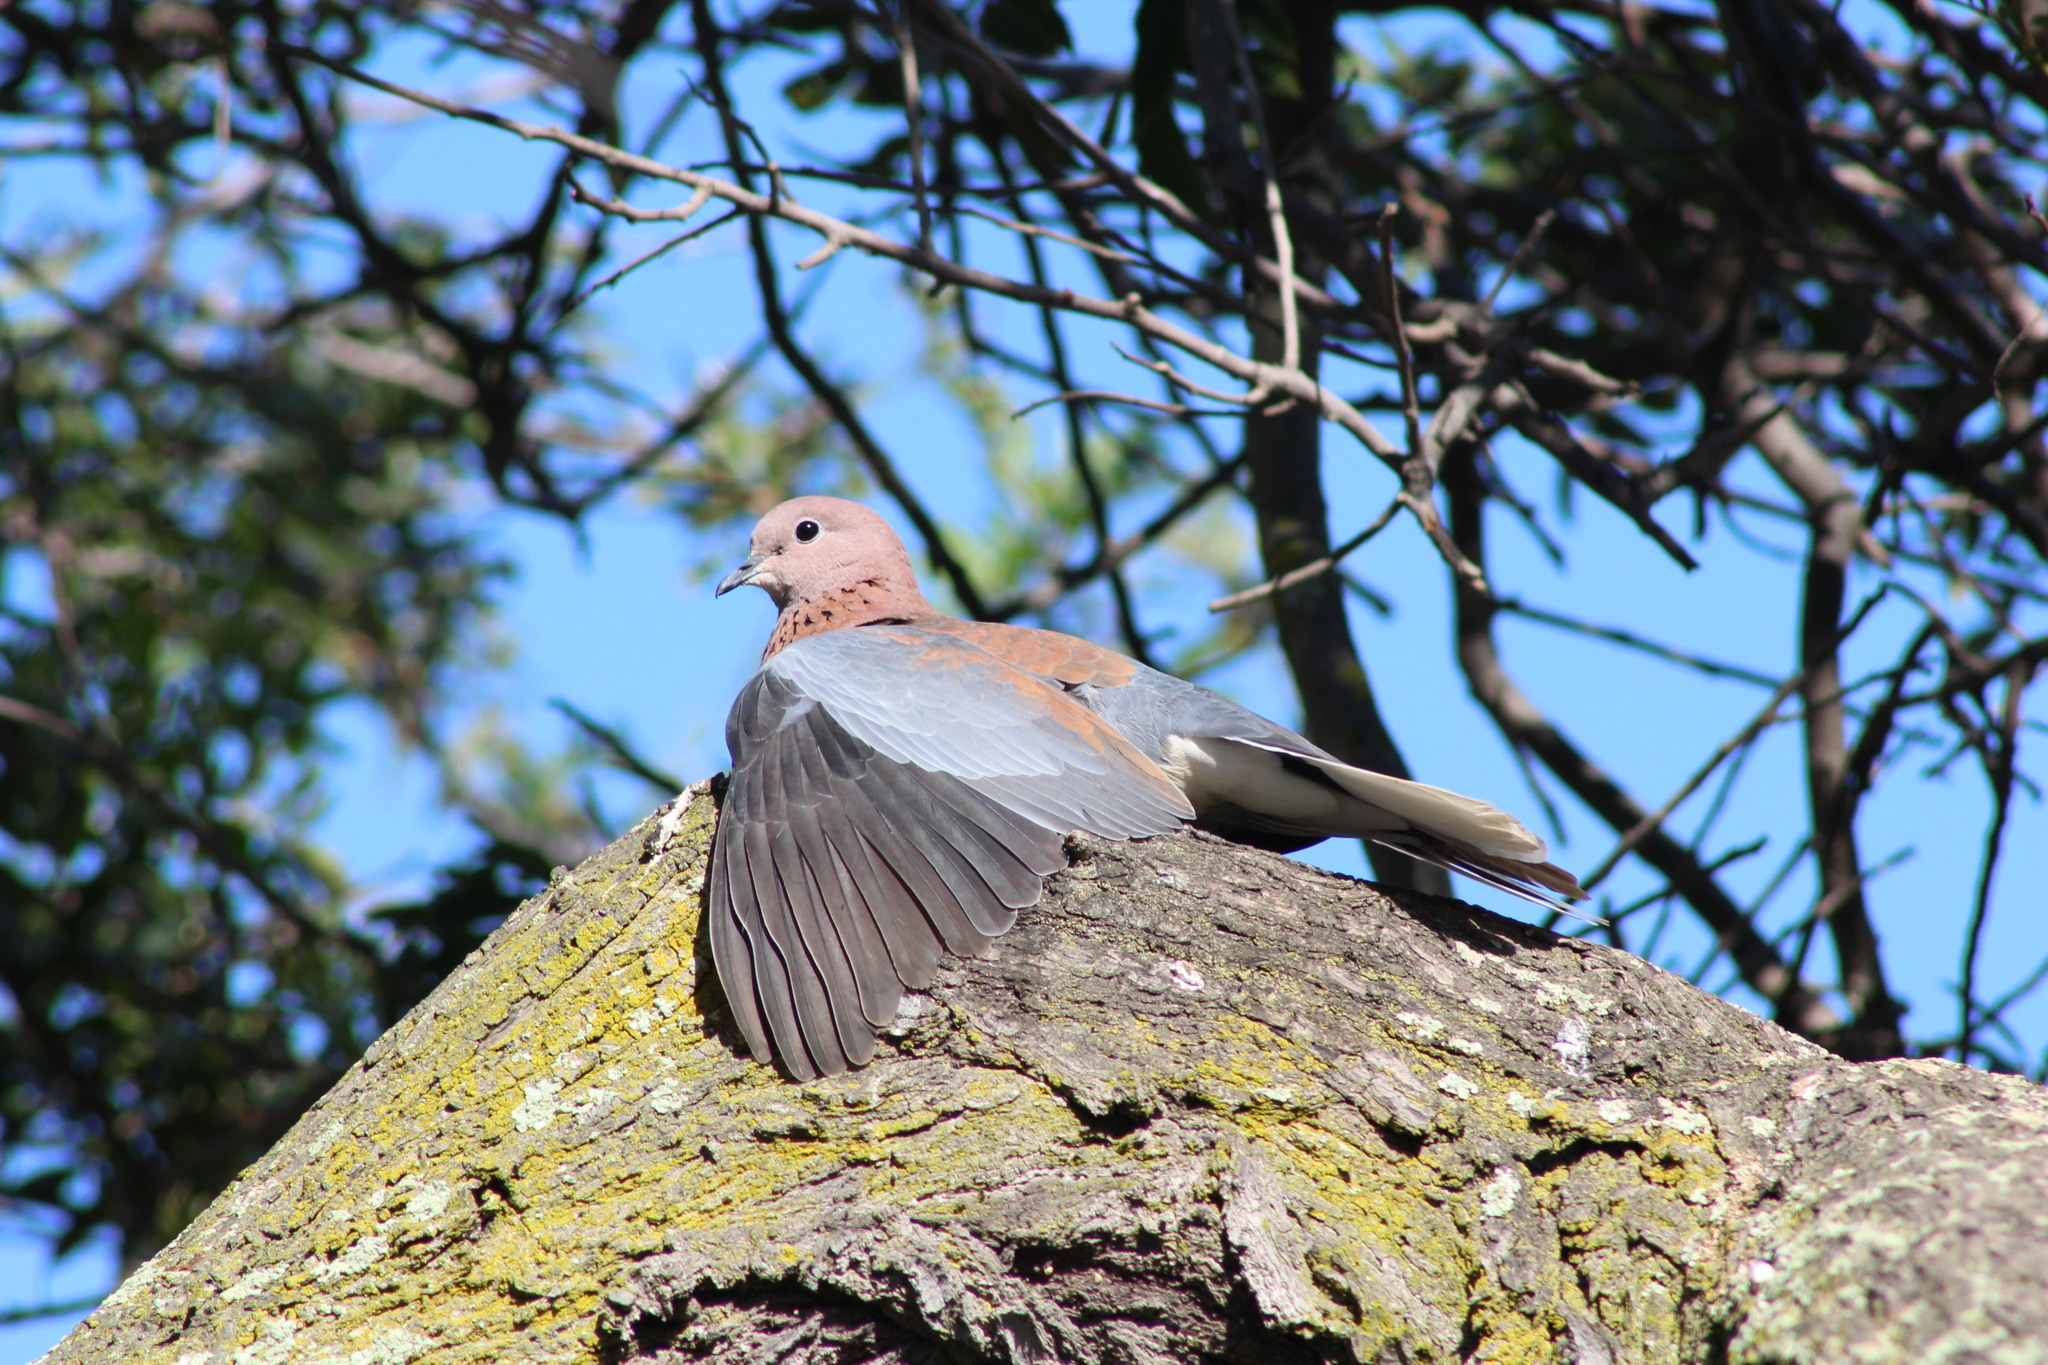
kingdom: Animalia
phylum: Chordata
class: Aves
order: Columbiformes
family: Columbidae
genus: Spilopelia
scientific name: Spilopelia senegalensis
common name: Laughing dove
